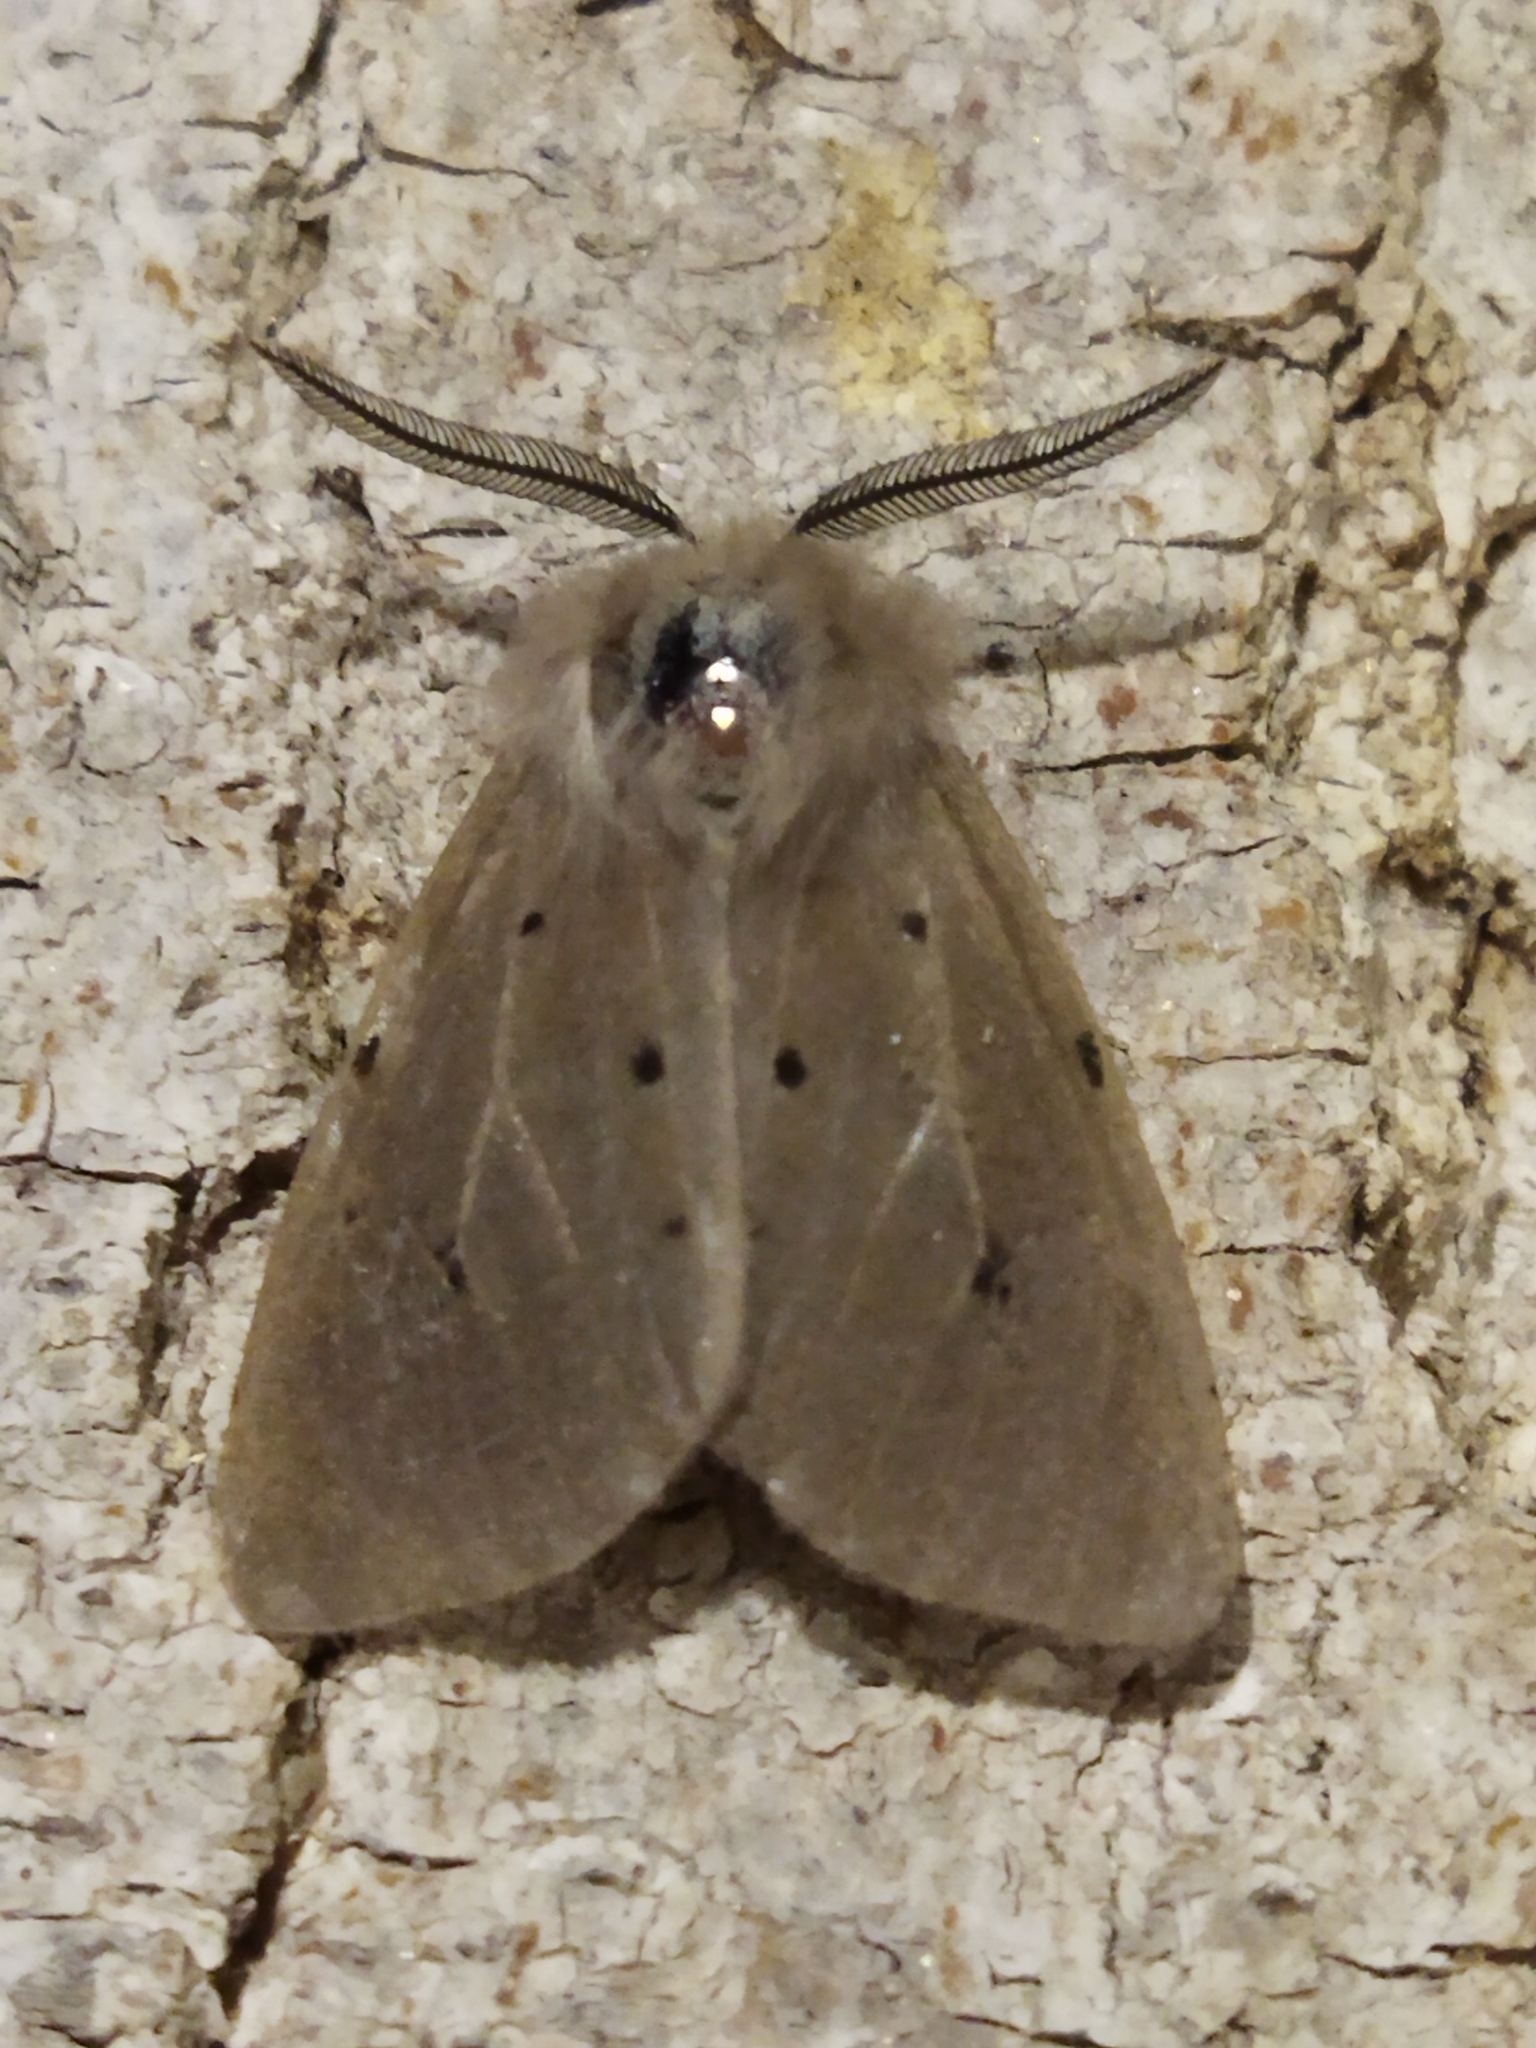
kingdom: Animalia
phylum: Arthropoda
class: Insecta
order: Lepidoptera
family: Erebidae
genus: Diaphora
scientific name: Diaphora mendica
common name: Muslin moth
